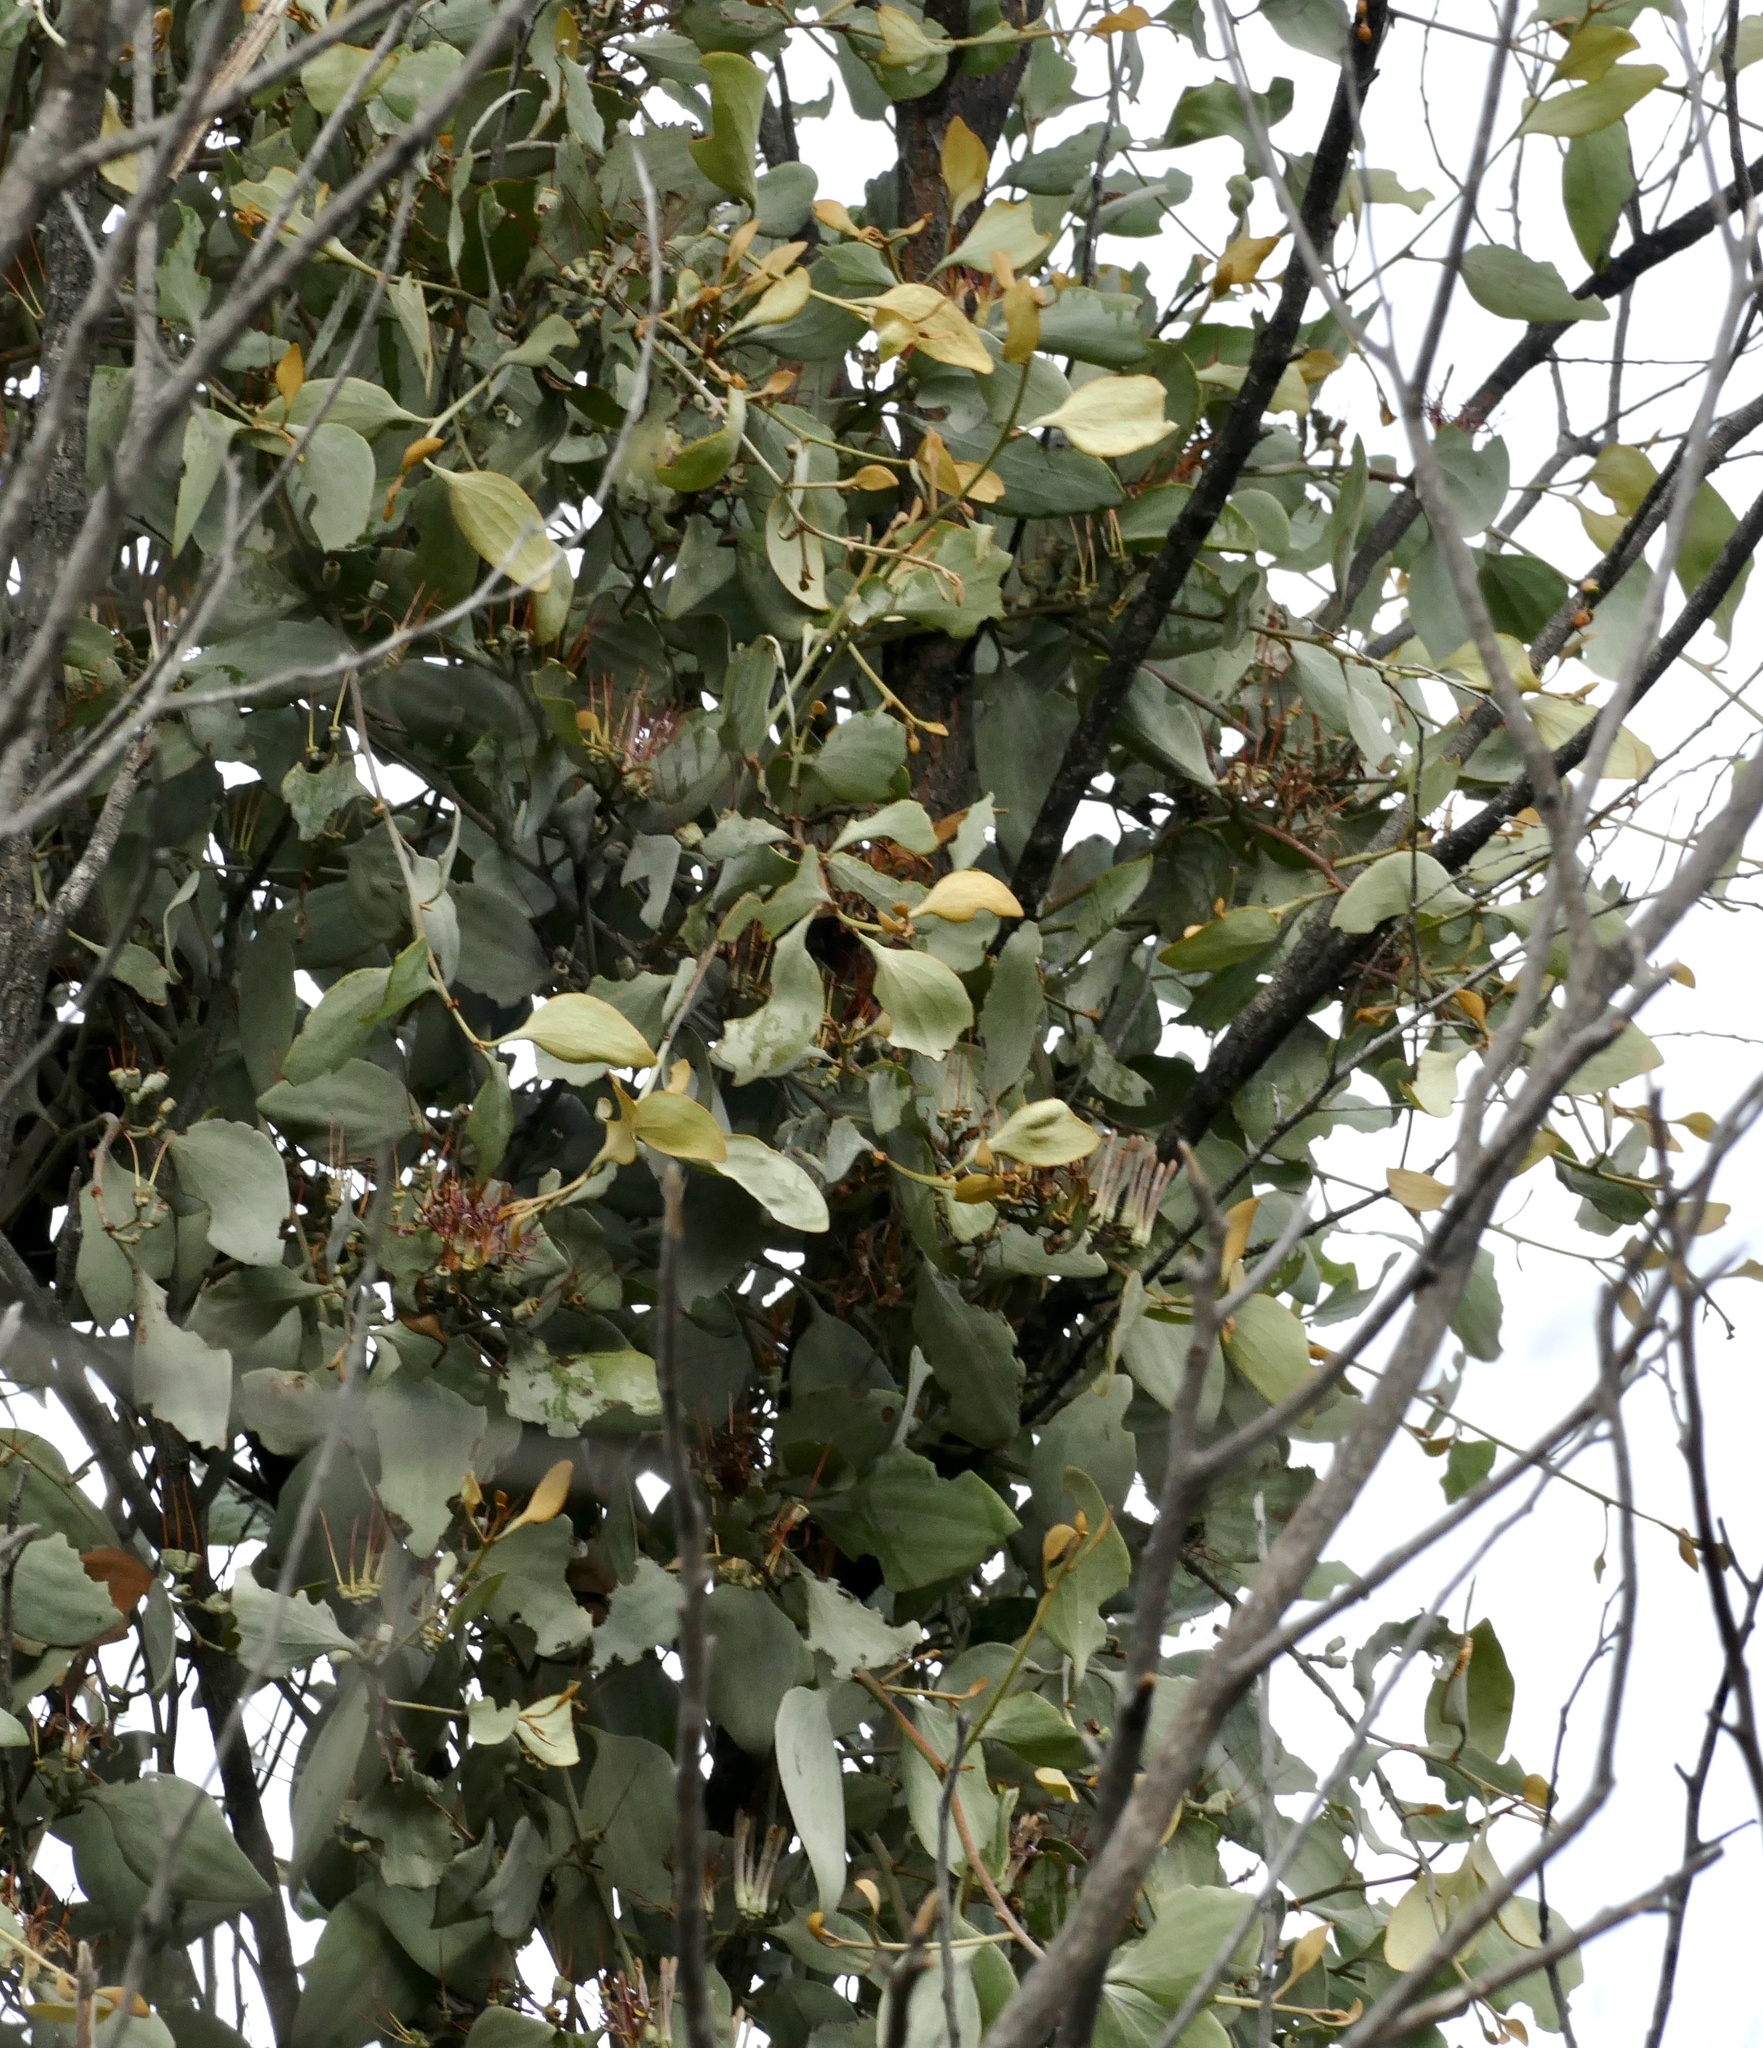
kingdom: Plantae
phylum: Tracheophyta
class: Magnoliopsida
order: Santalales
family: Loranthaceae
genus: Amyema
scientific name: Amyema quandang
